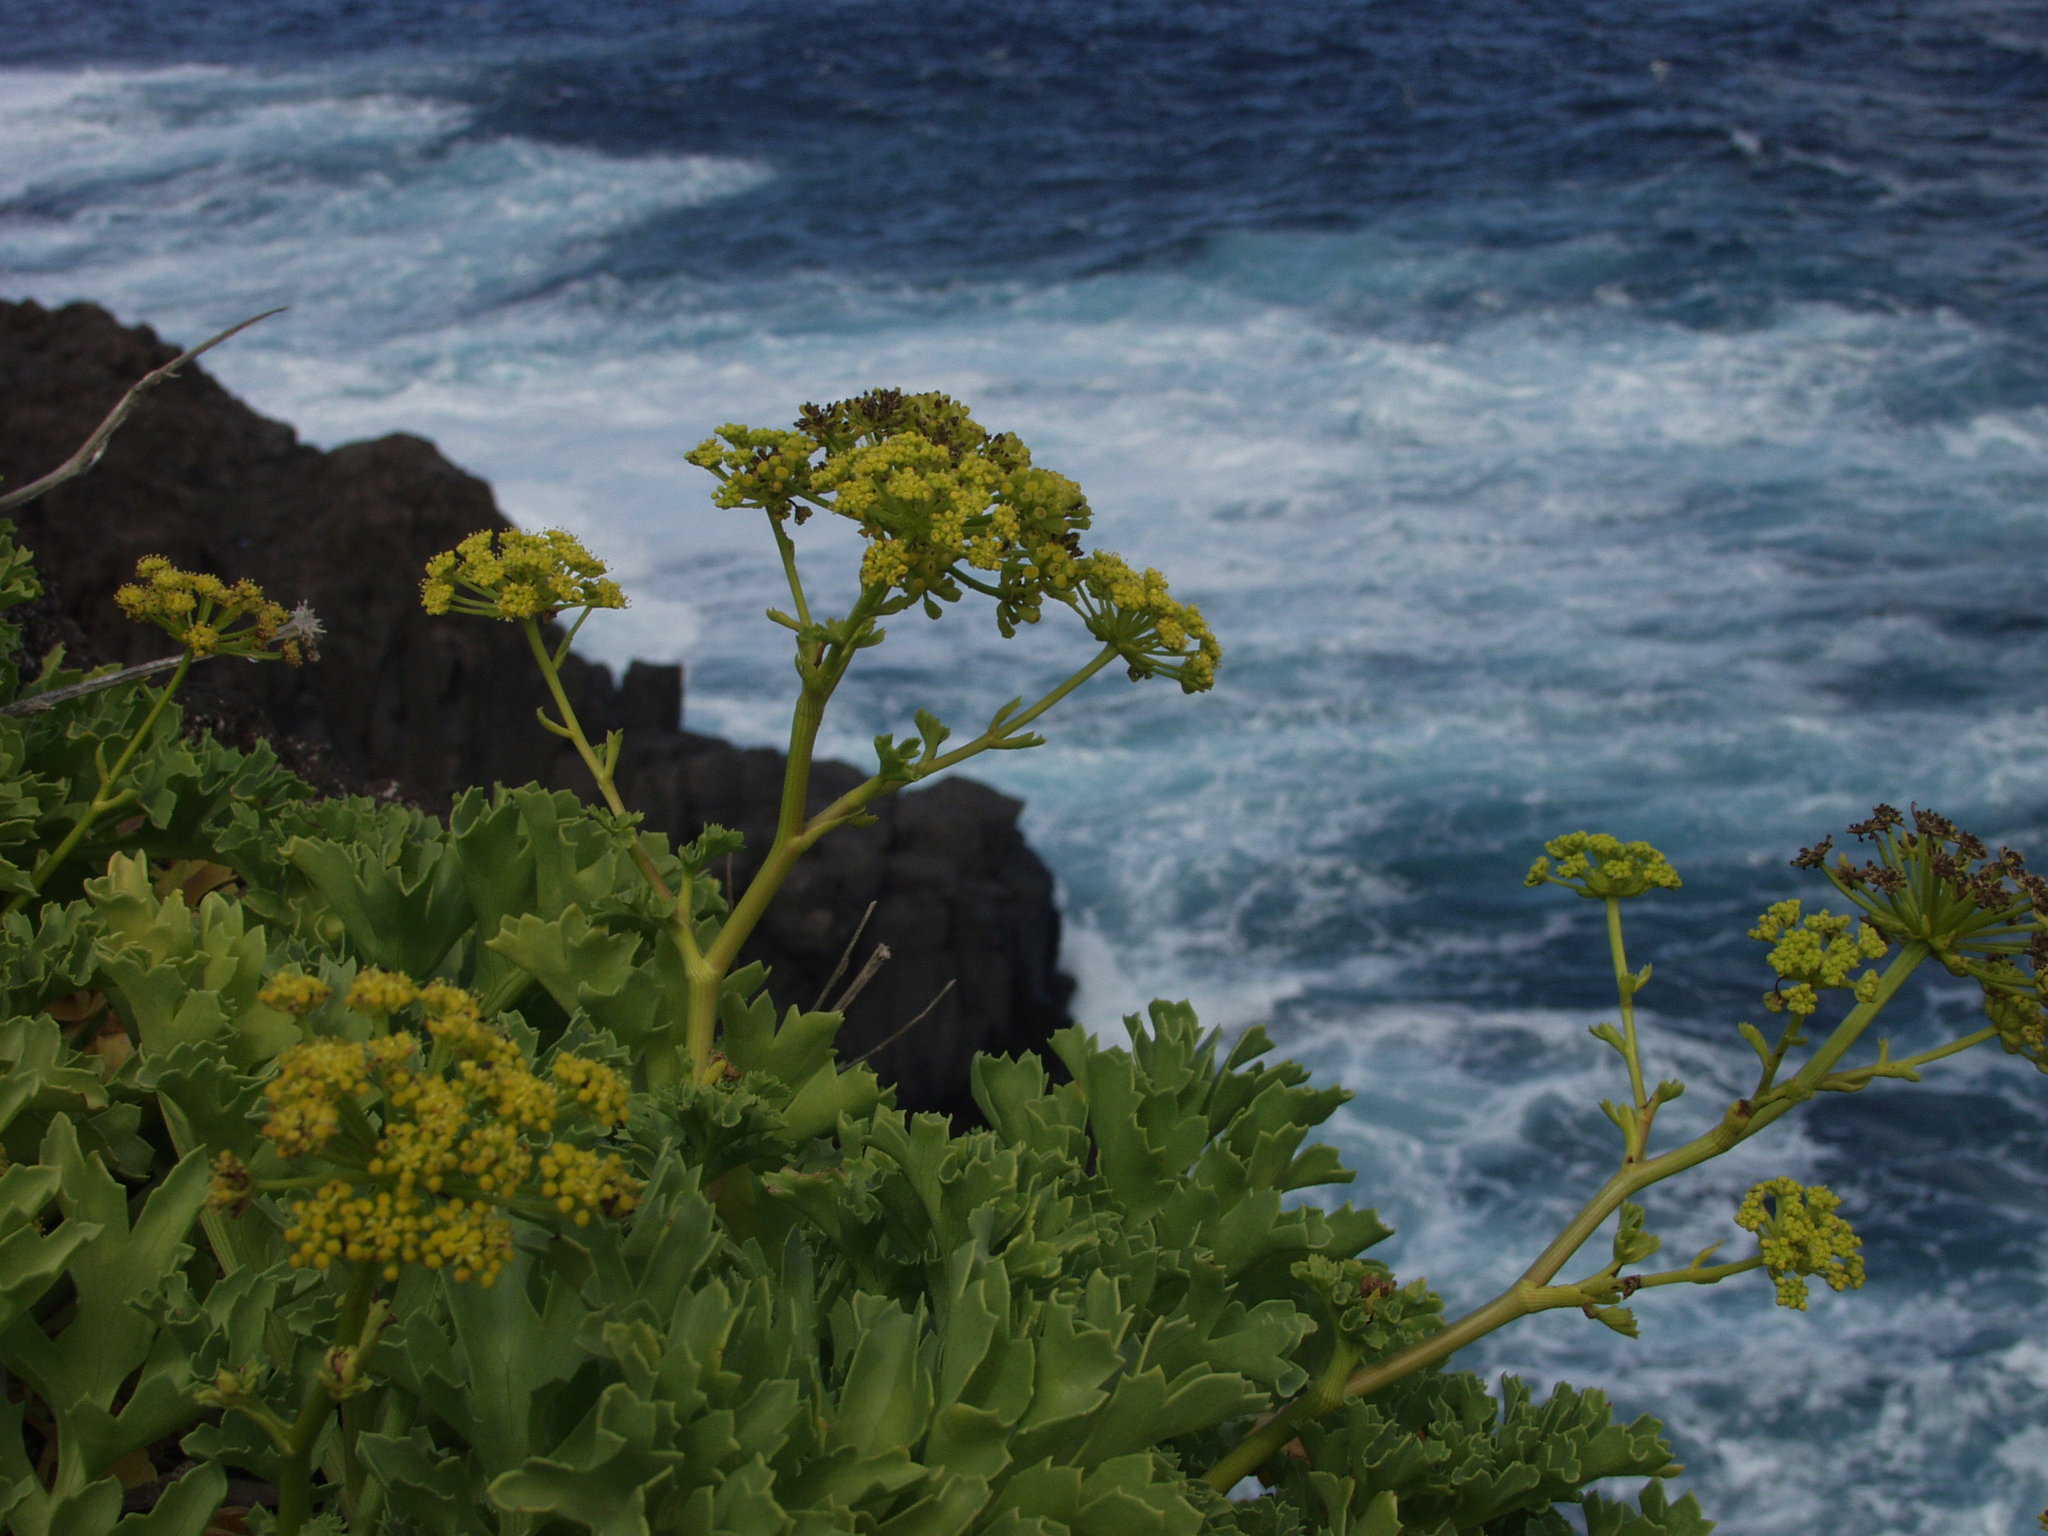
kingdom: Plantae
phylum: Tracheophyta
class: Magnoliopsida
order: Apiales
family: Apiaceae
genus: Astydamia
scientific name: Astydamia latifolia
